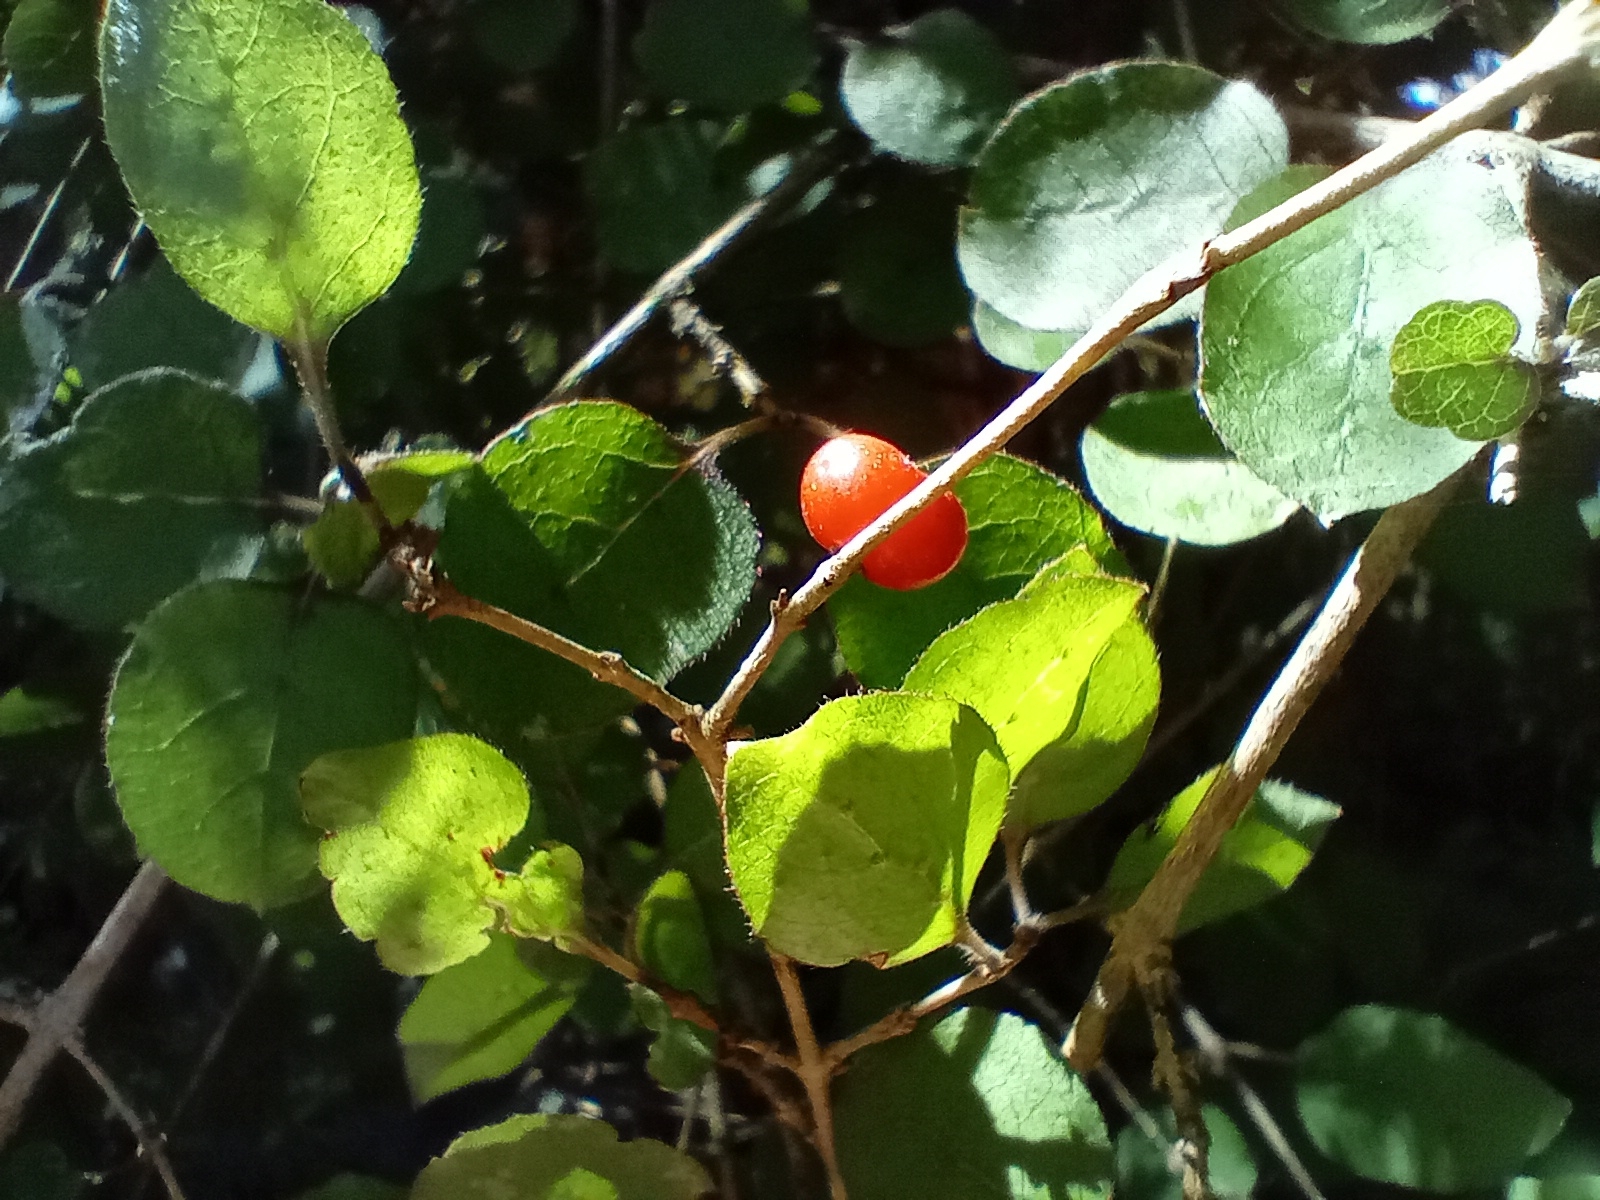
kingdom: Plantae
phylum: Tracheophyta
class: Magnoliopsida
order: Gentianales
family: Rubiaceae
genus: Coprosma
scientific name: Coprosma rotundifolia
